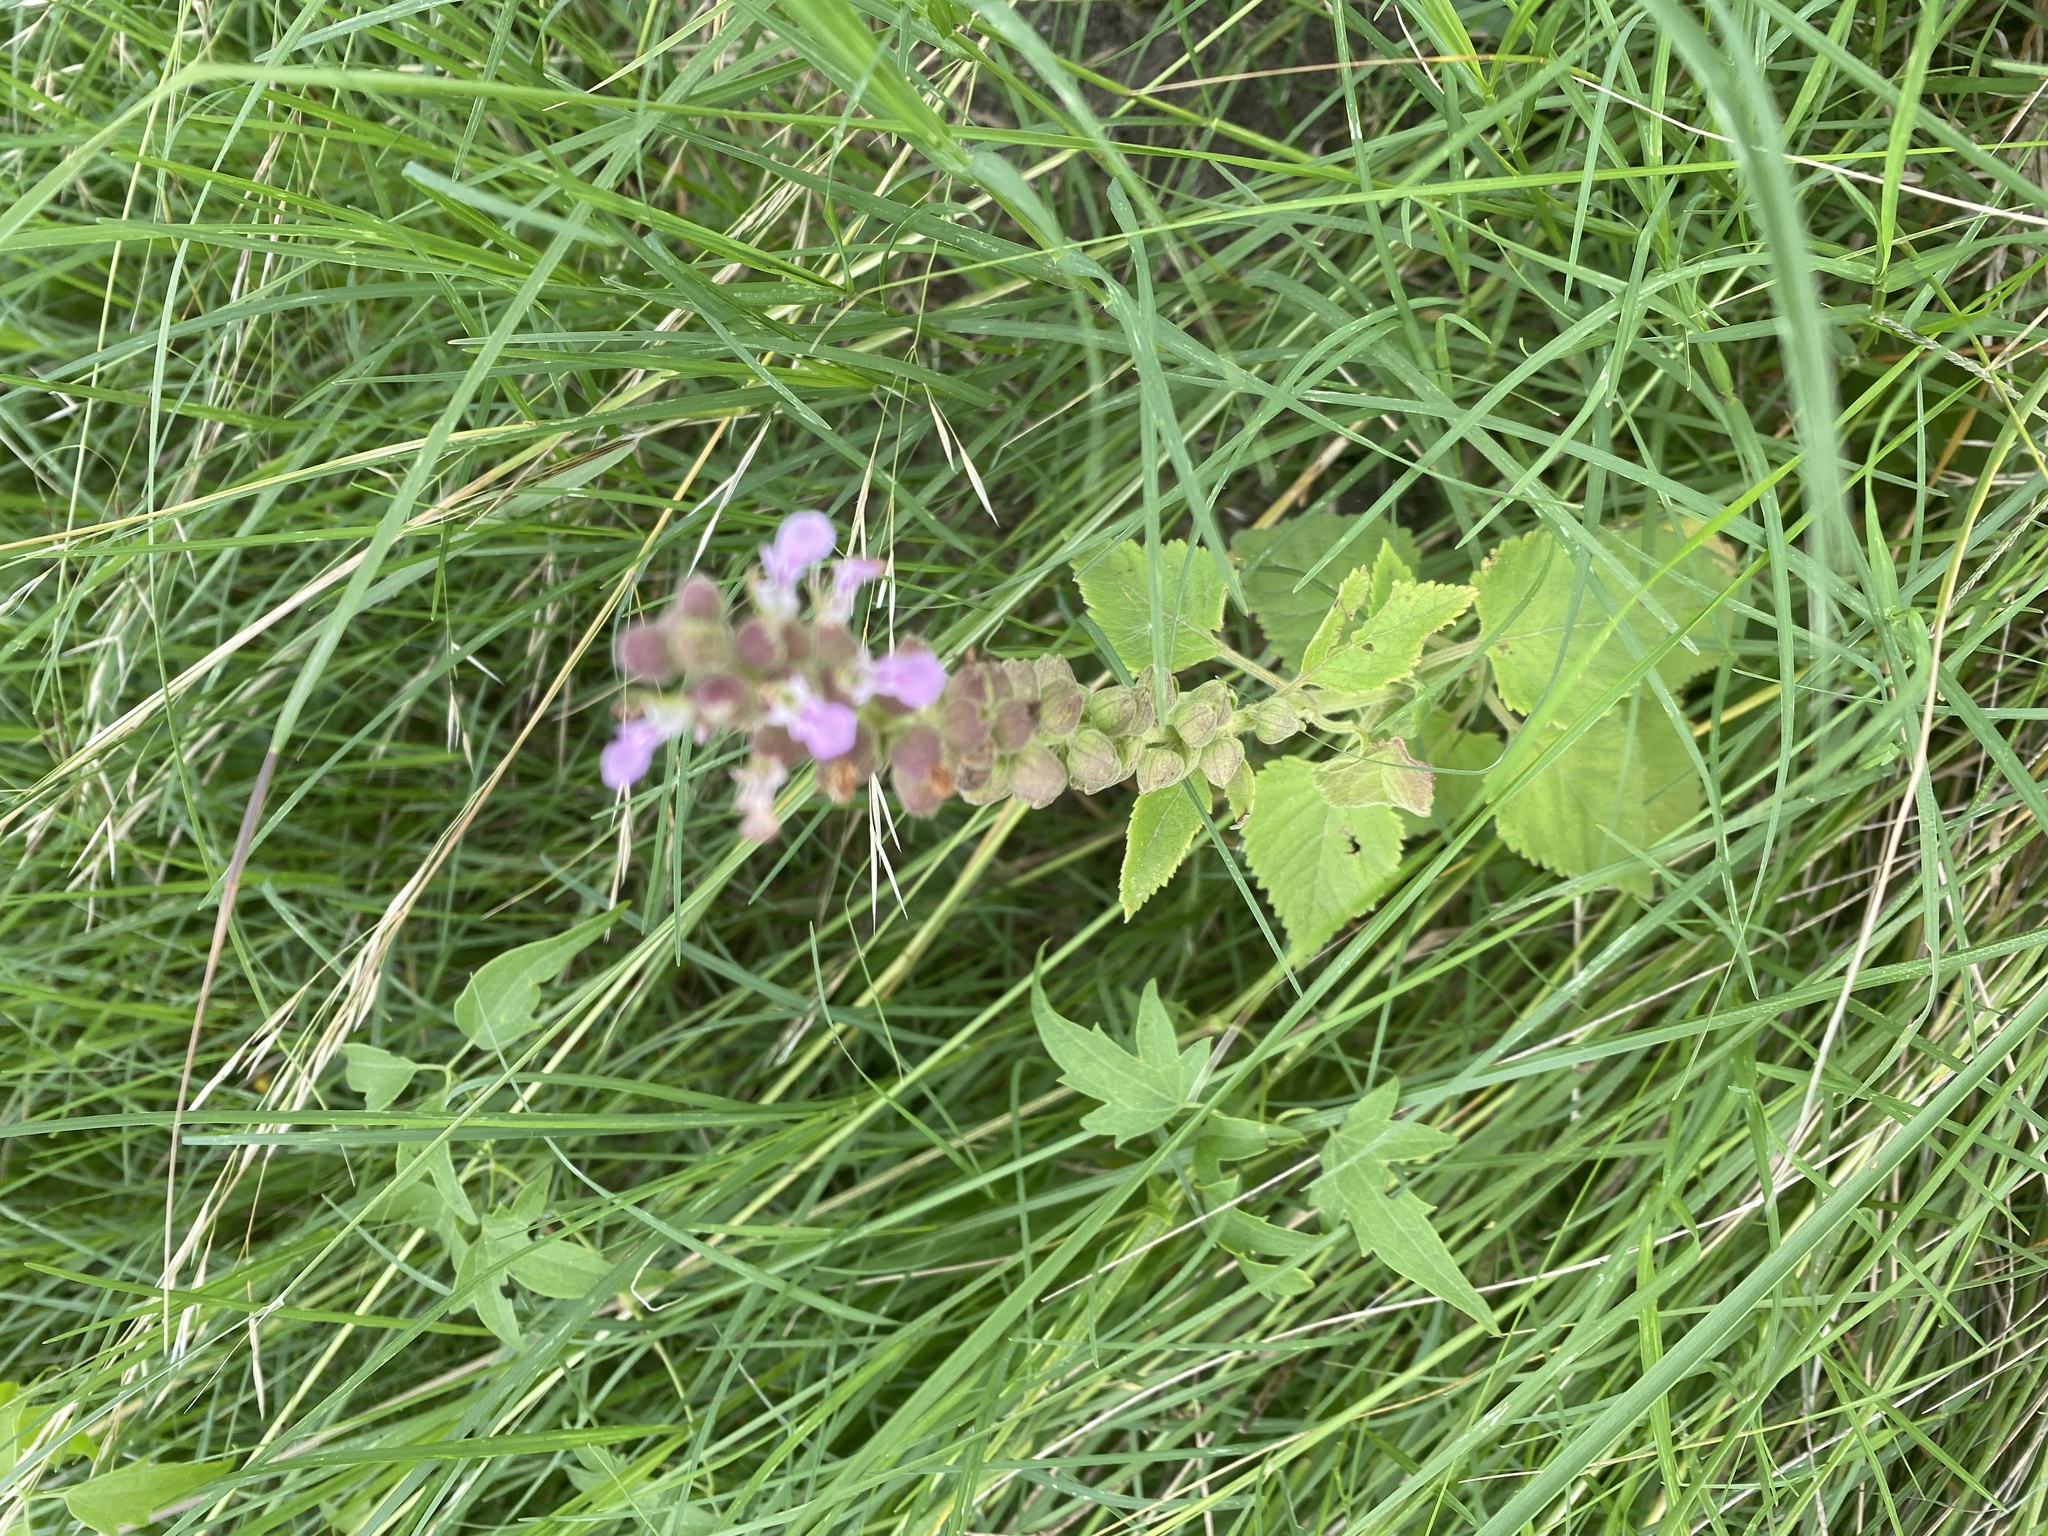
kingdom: Plantae
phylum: Tracheophyta
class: Magnoliopsida
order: Lamiales
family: Lamiaceae
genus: Teucrium
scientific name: Teucrium vesicarium
